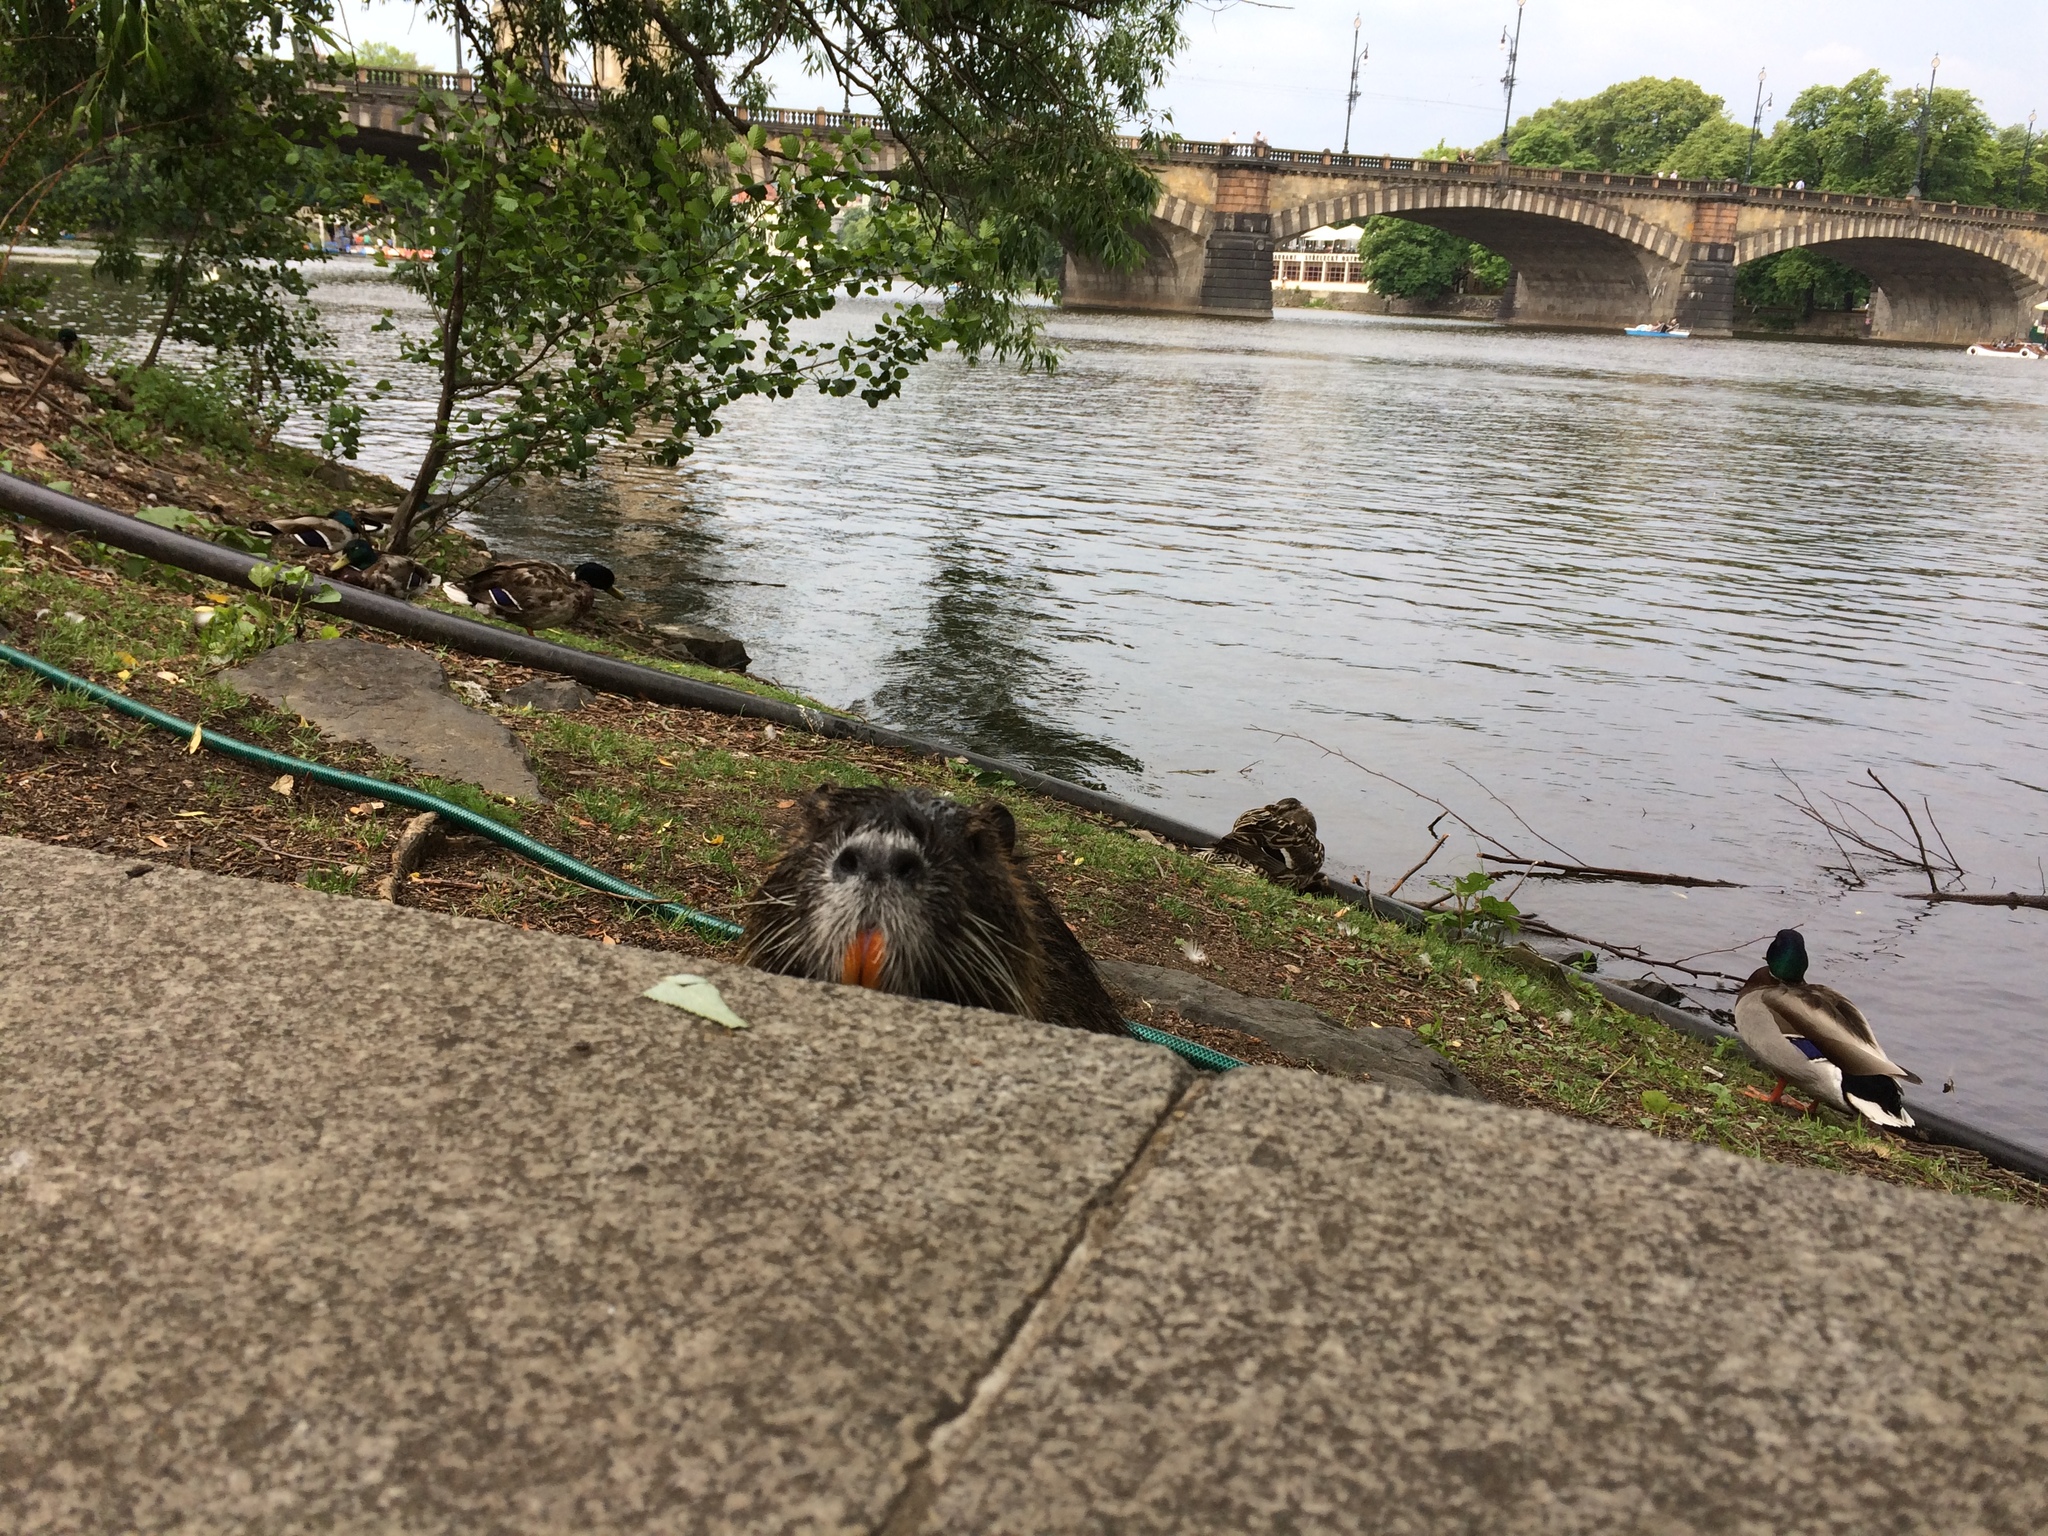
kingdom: Animalia
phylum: Chordata
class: Mammalia
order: Rodentia
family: Myocastoridae
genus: Myocastor
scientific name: Myocastor coypus
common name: Coypu
